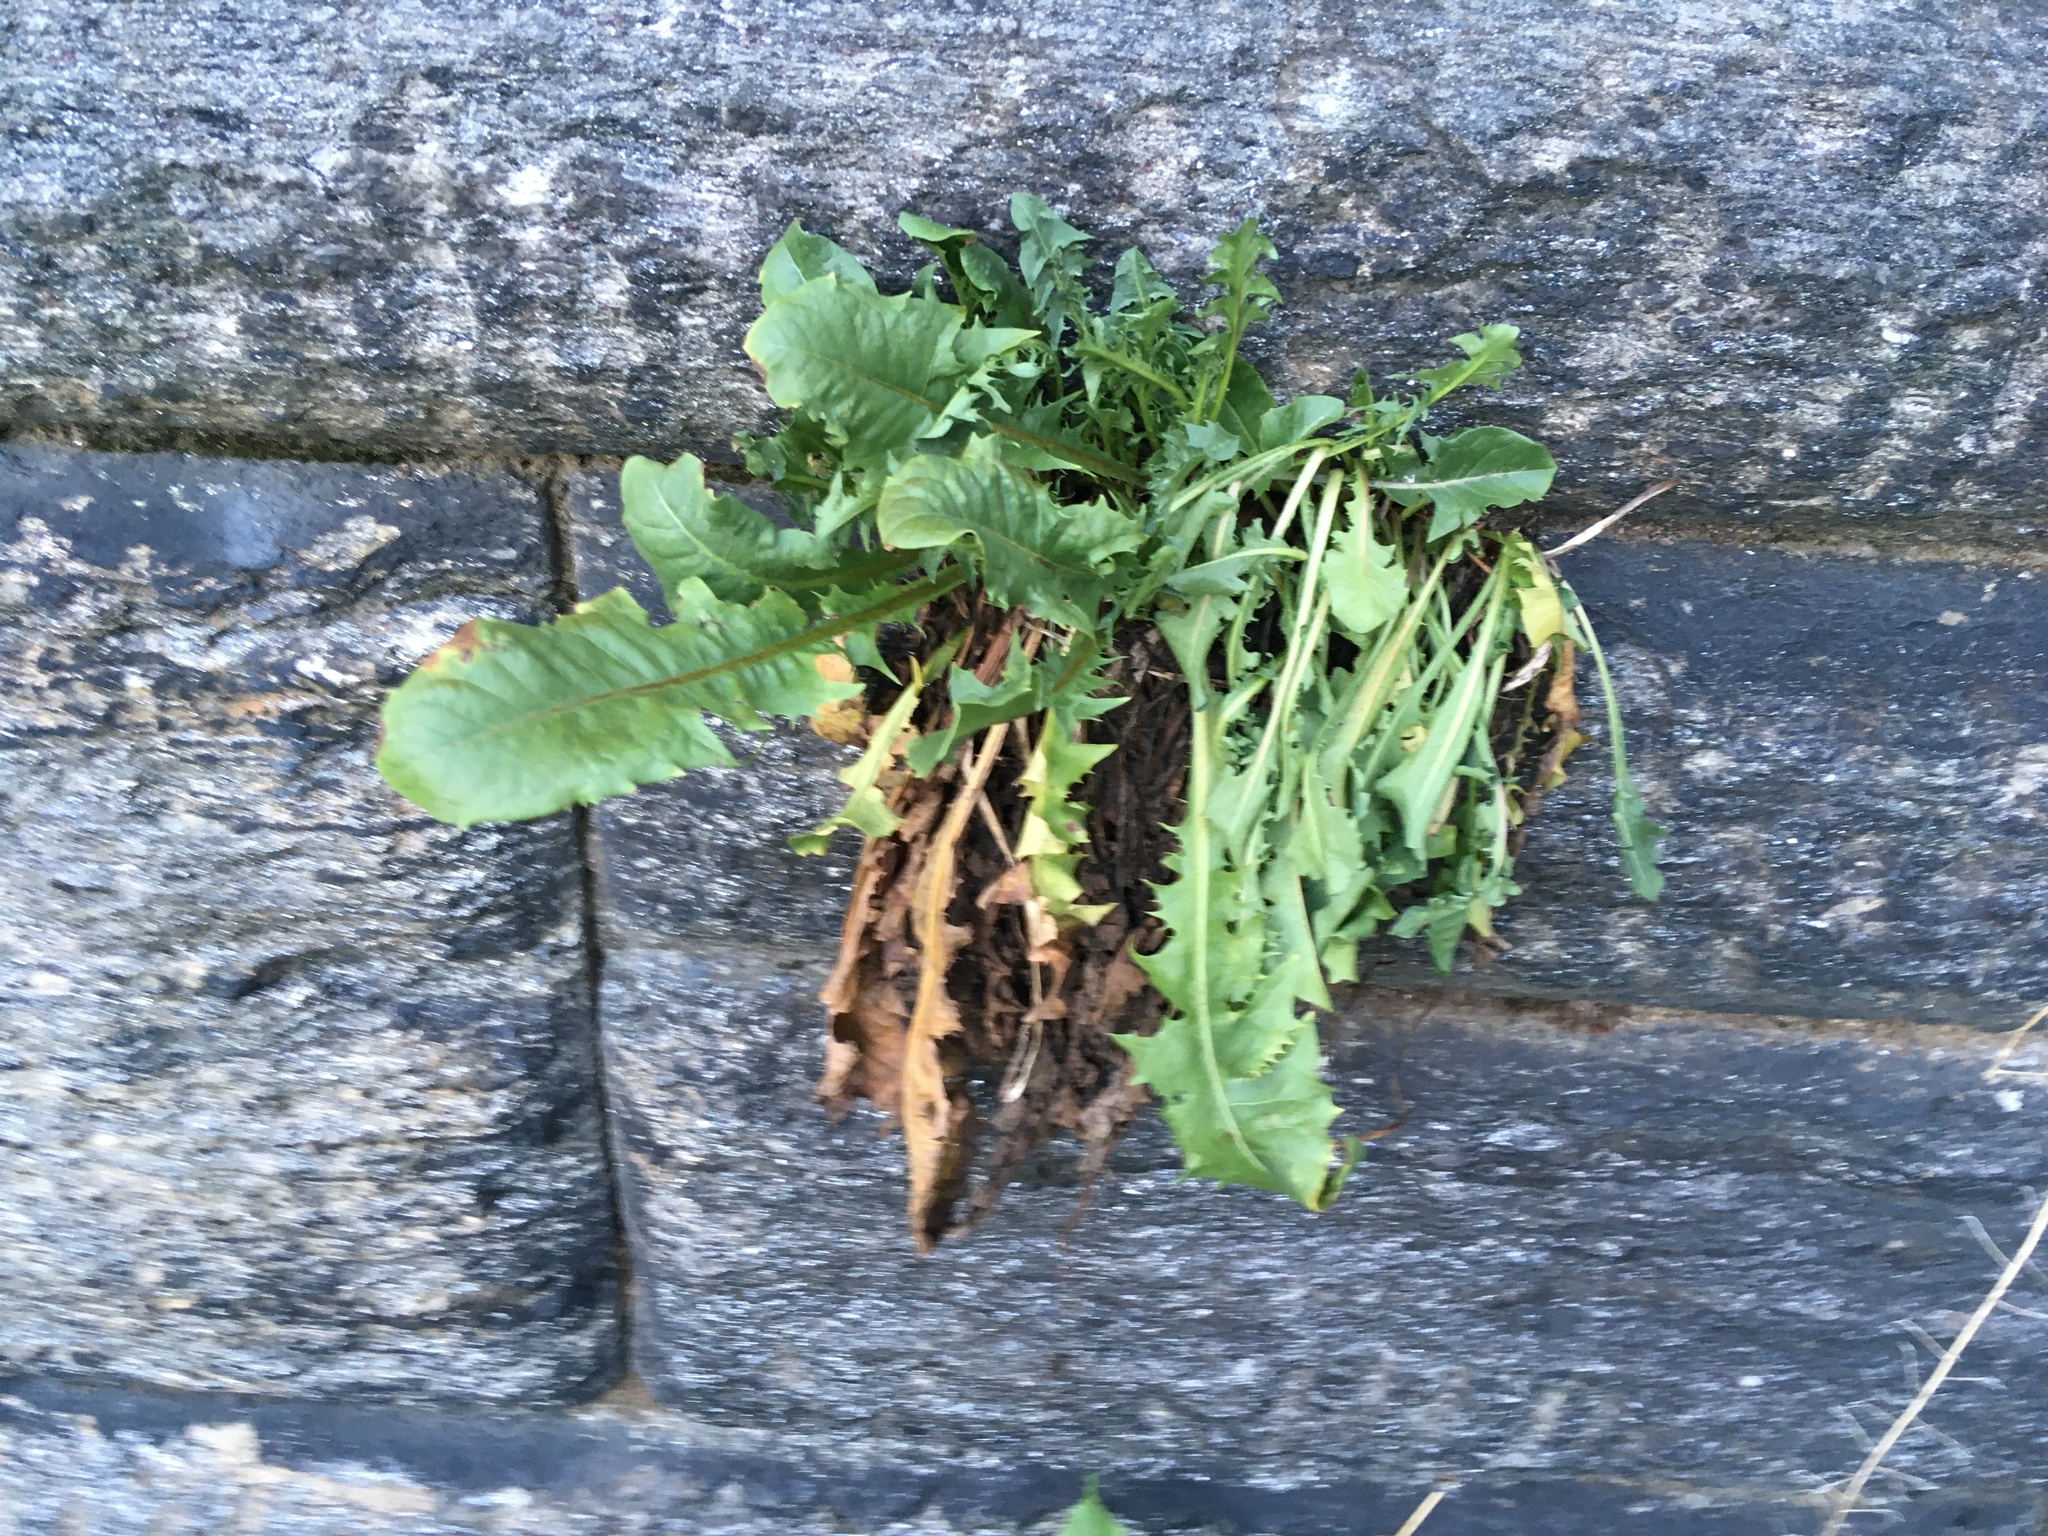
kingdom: Plantae
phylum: Tracheophyta
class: Magnoliopsida
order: Asterales
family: Asteraceae
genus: Taraxacum
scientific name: Taraxacum officinale
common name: Common dandelion
